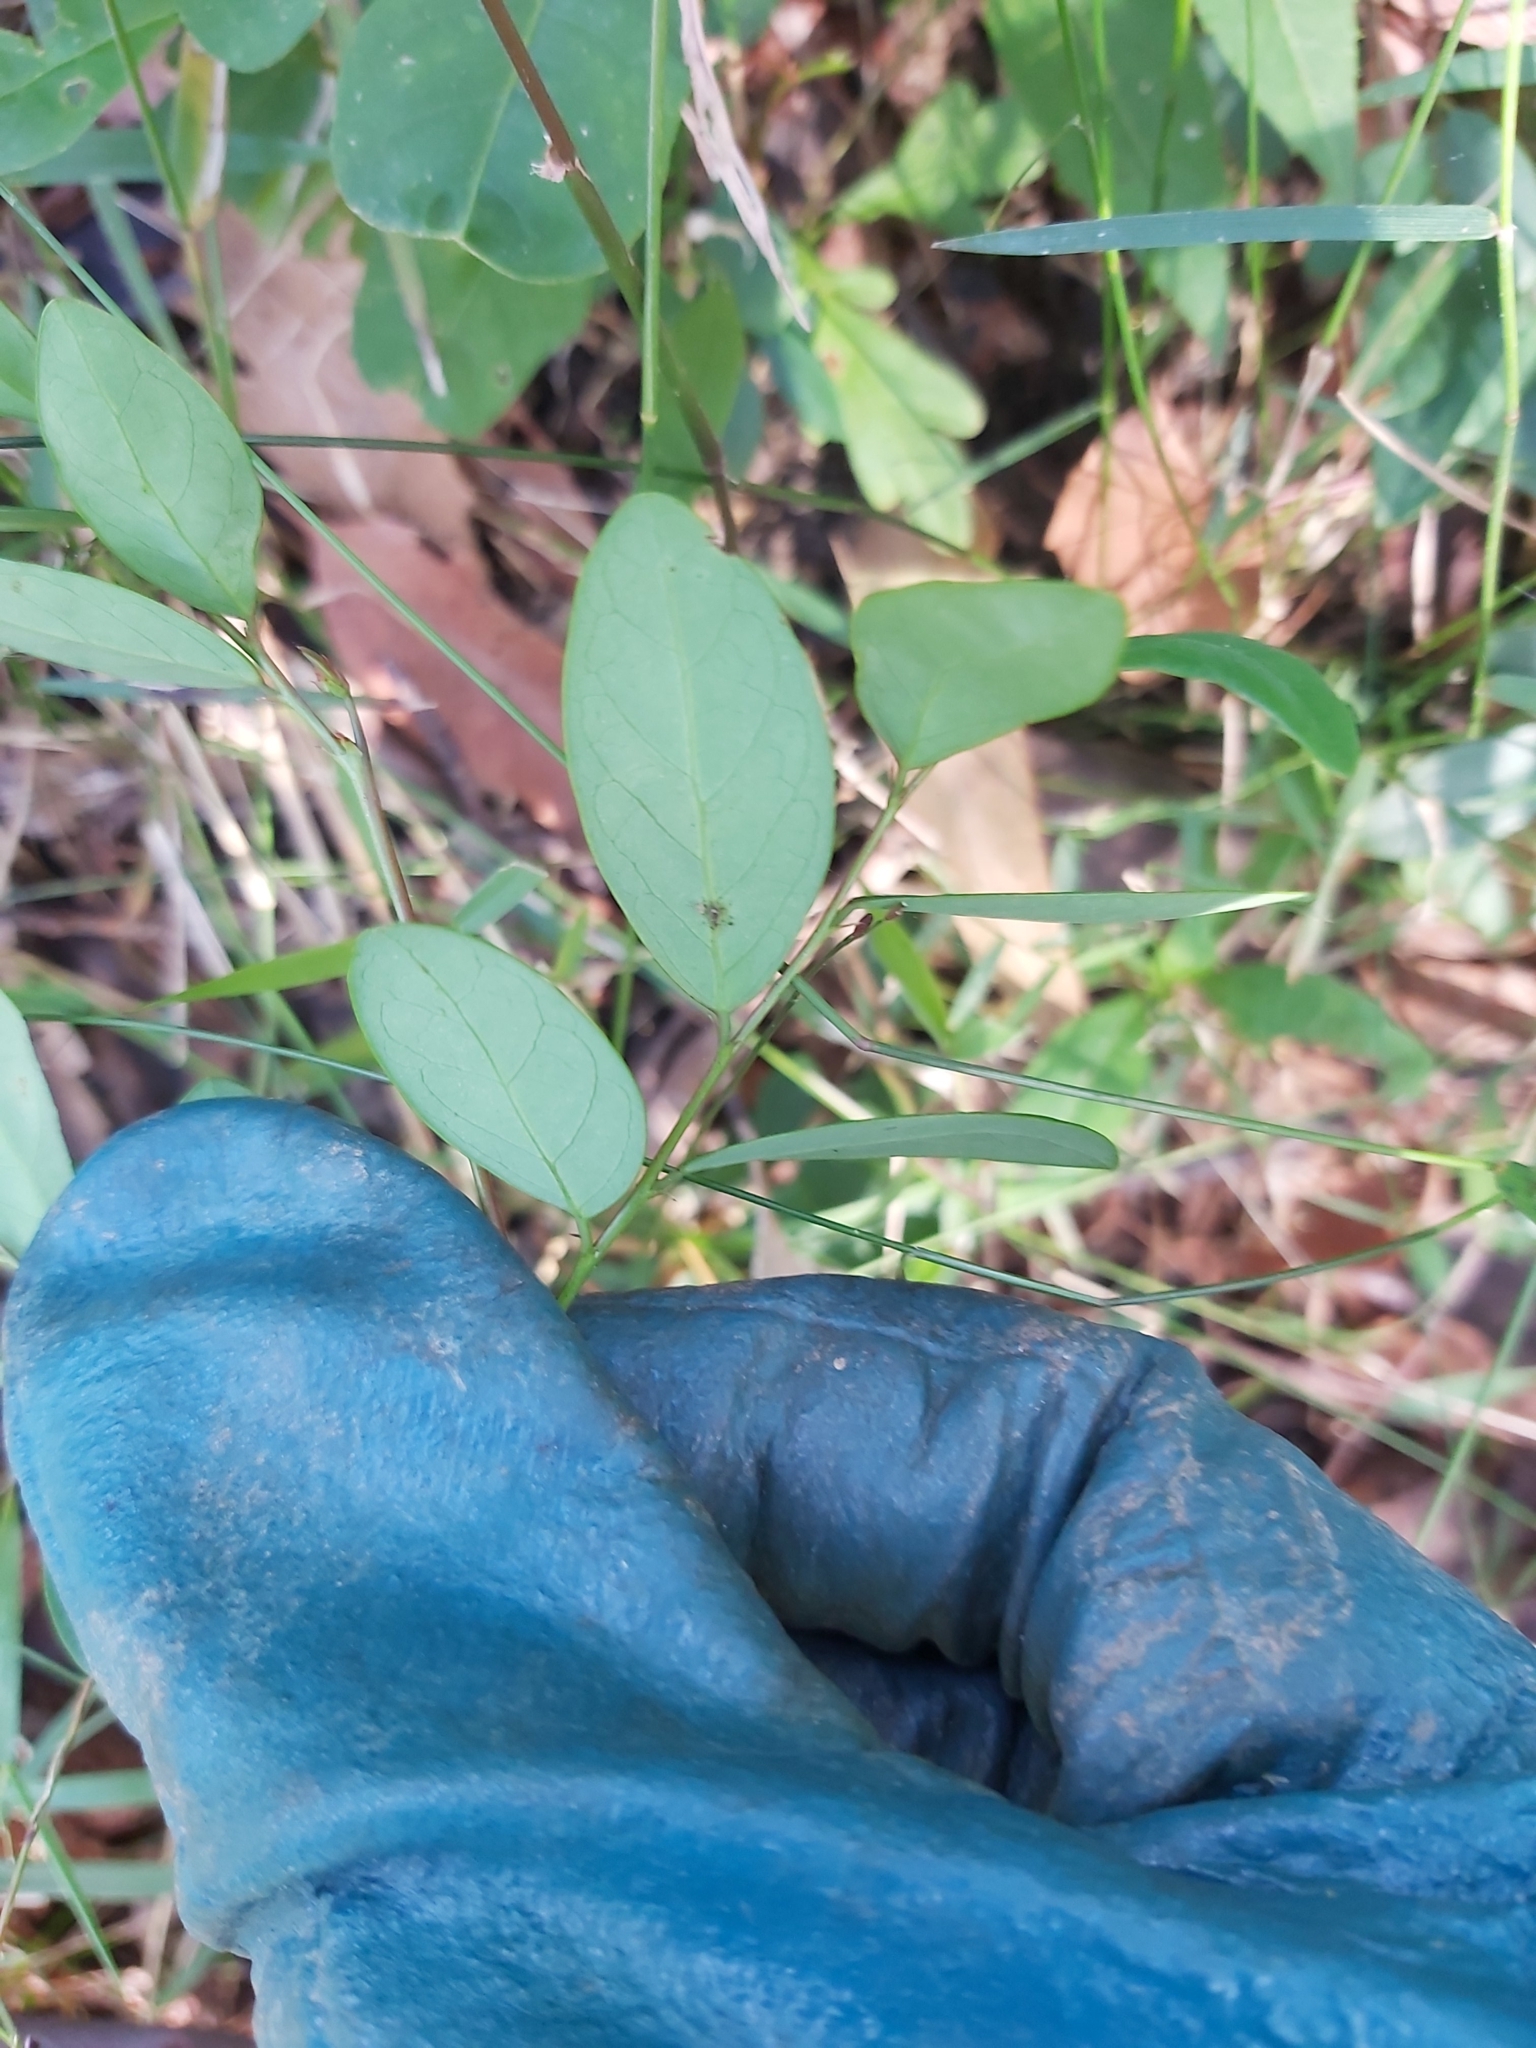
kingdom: Plantae
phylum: Tracheophyta
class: Magnoliopsida
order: Malpighiales
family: Phyllanthaceae
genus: Breynia
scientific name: Breynia oblongifolia
